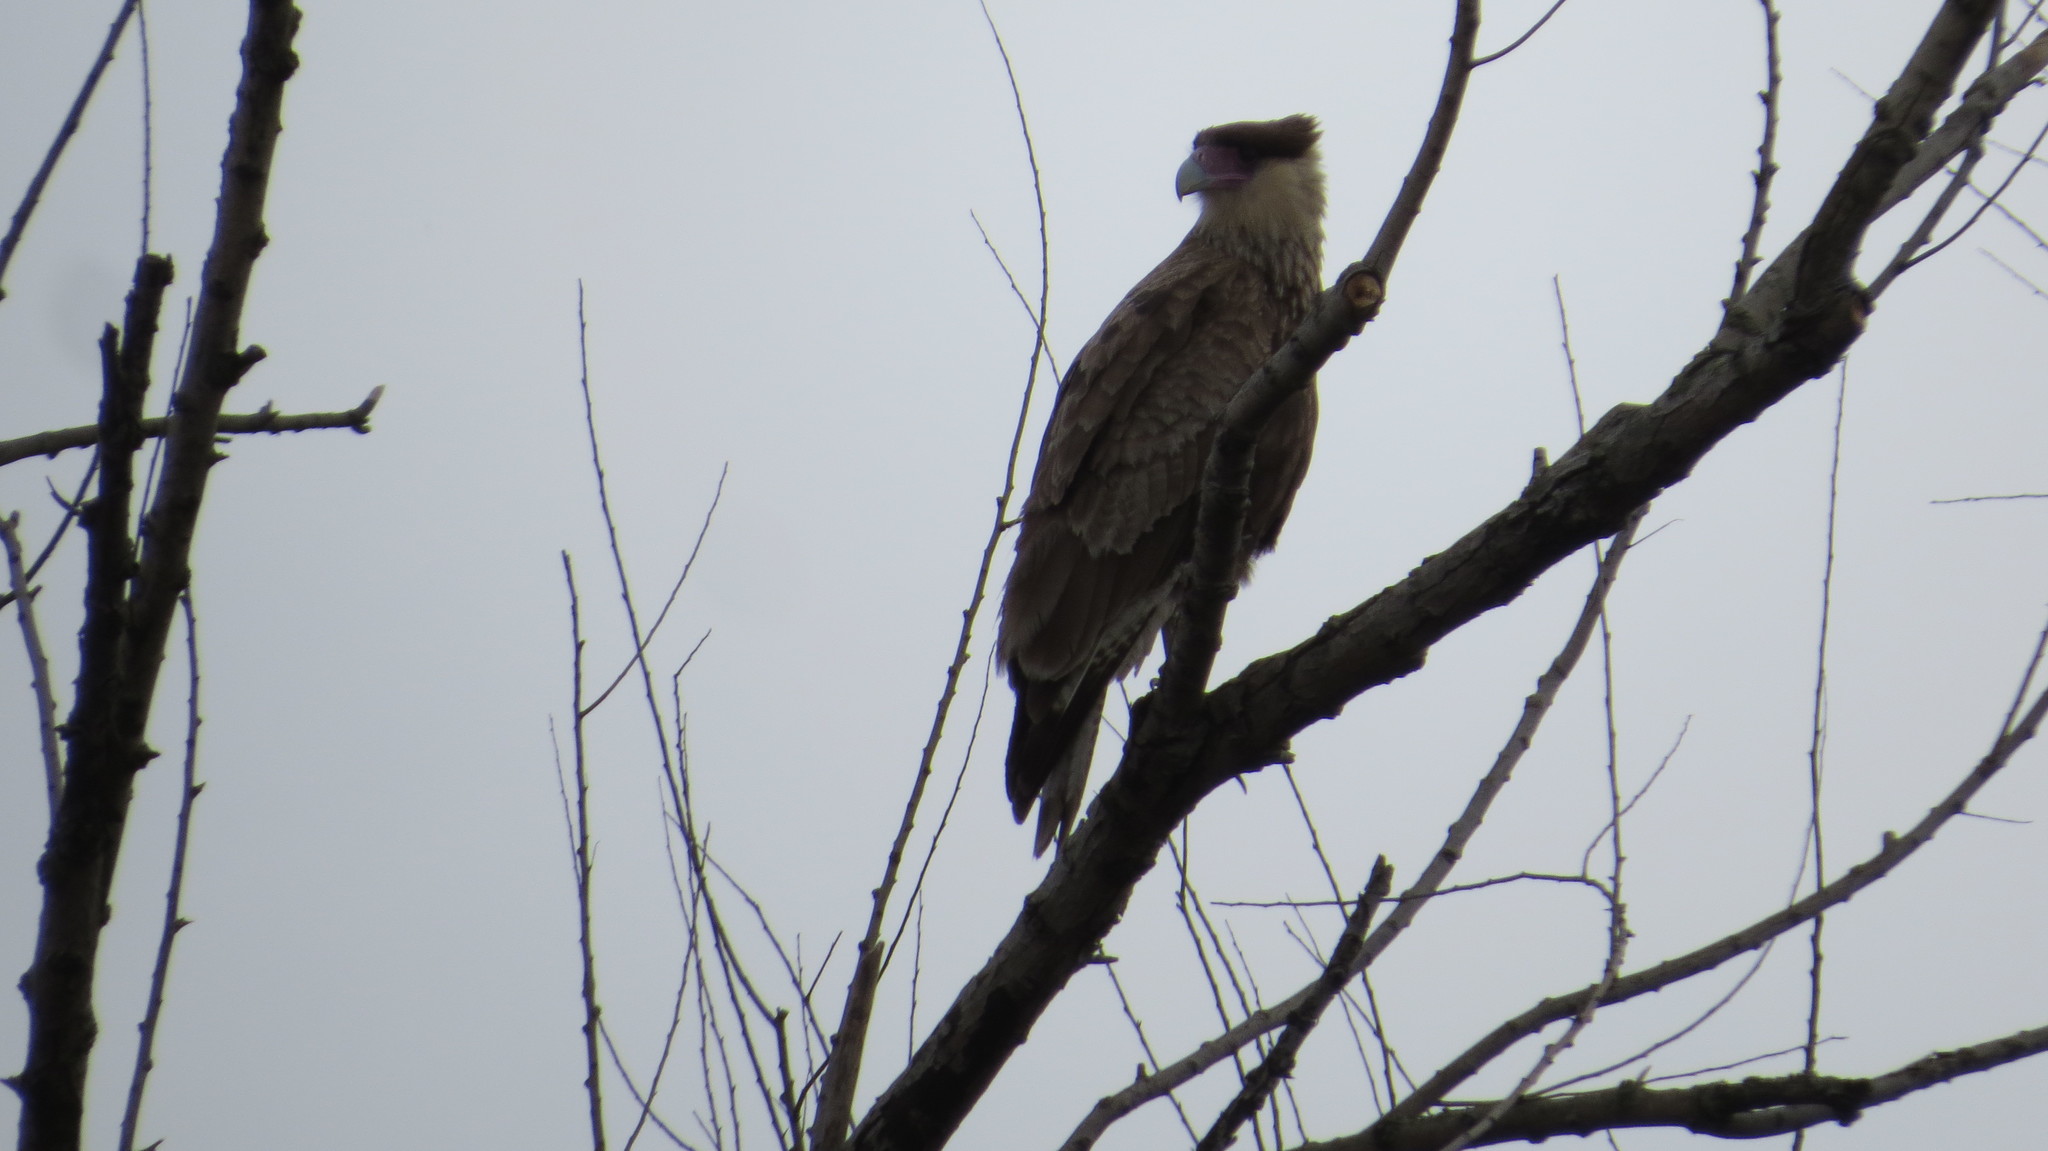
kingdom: Animalia
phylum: Chordata
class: Aves
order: Falconiformes
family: Falconidae
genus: Caracara
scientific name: Caracara plancus
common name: Southern caracara
